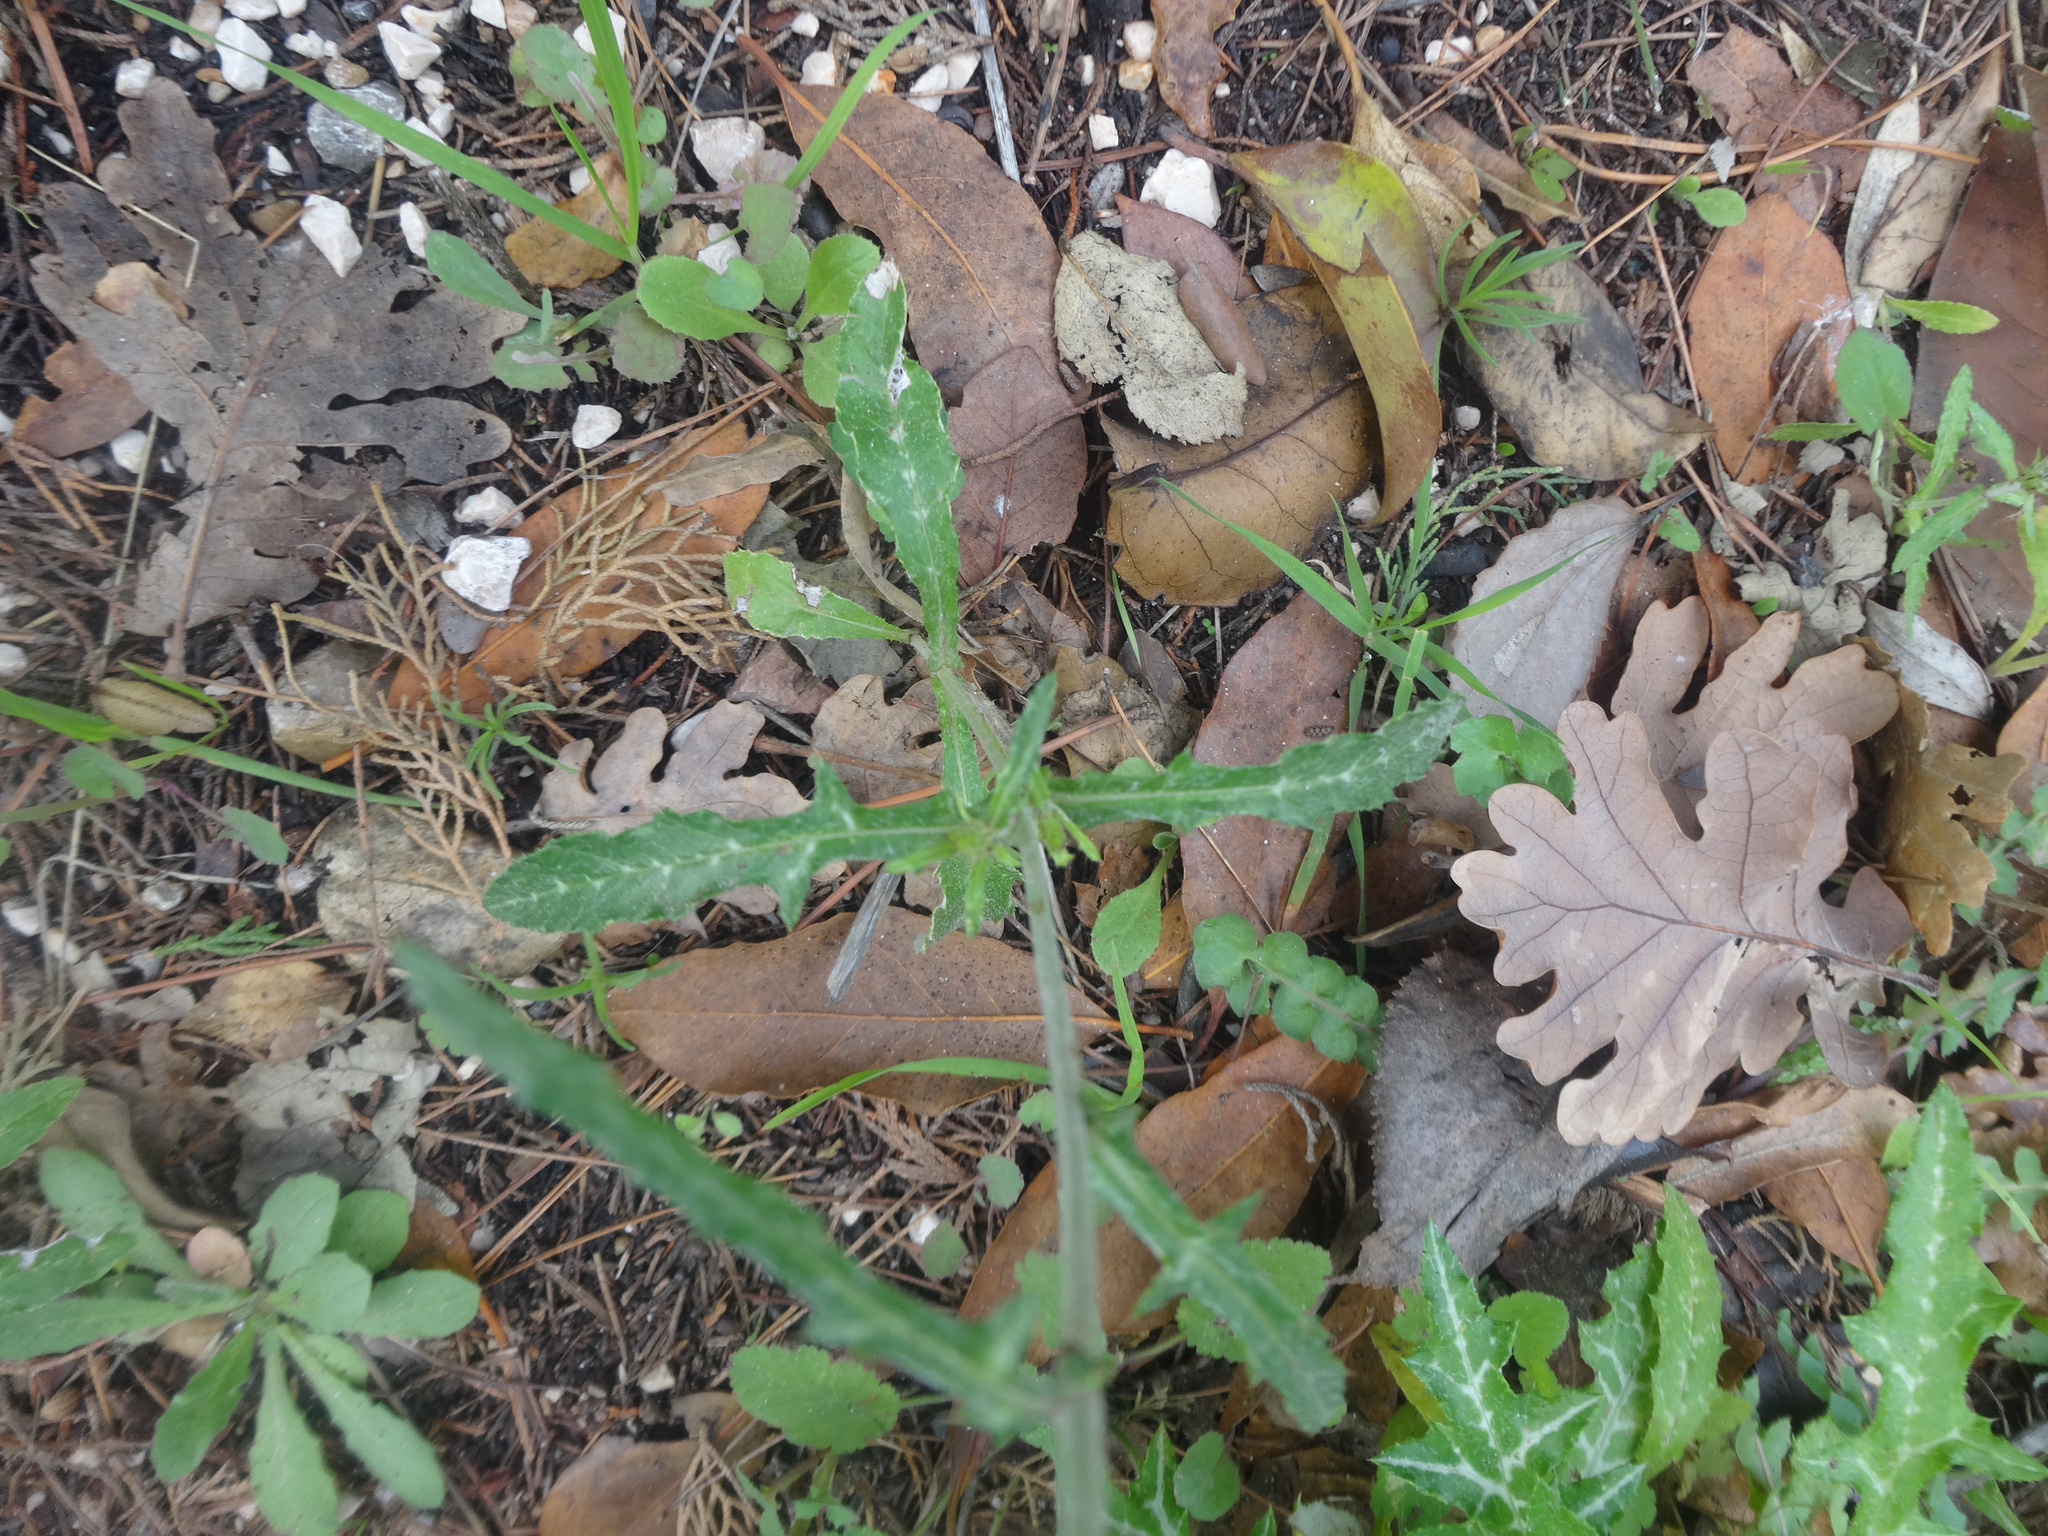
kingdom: Plantae
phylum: Tracheophyta
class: Magnoliopsida
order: Asterales
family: Asteraceae
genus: Galactites
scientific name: Galactites tomentosa
